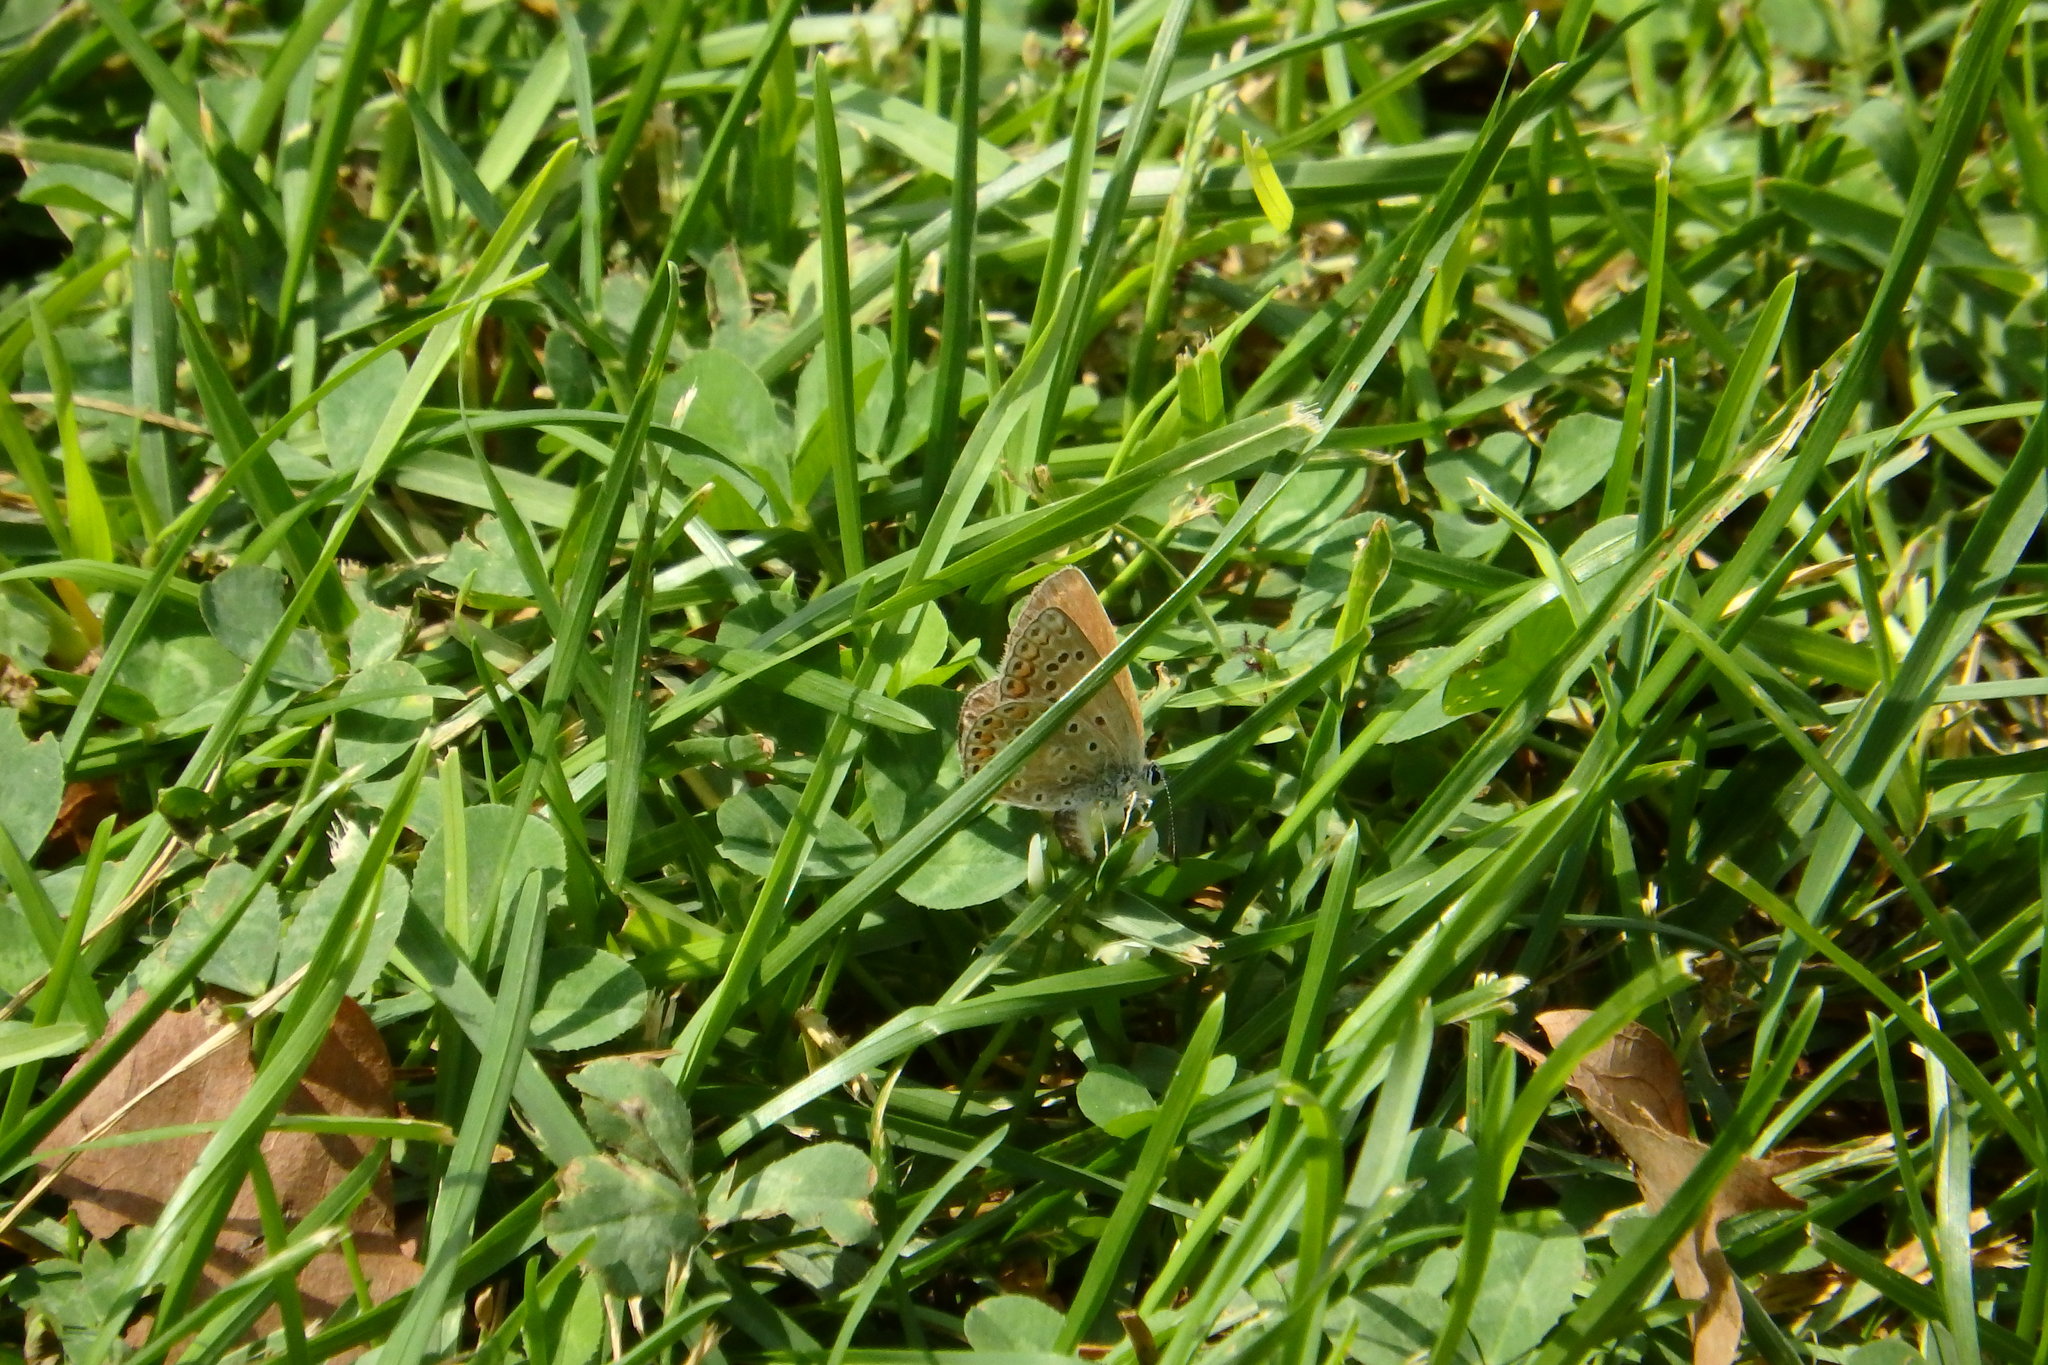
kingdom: Animalia
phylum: Arthropoda
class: Insecta
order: Lepidoptera
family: Lycaenidae
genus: Polyommatus
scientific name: Polyommatus icarus
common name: Common blue
